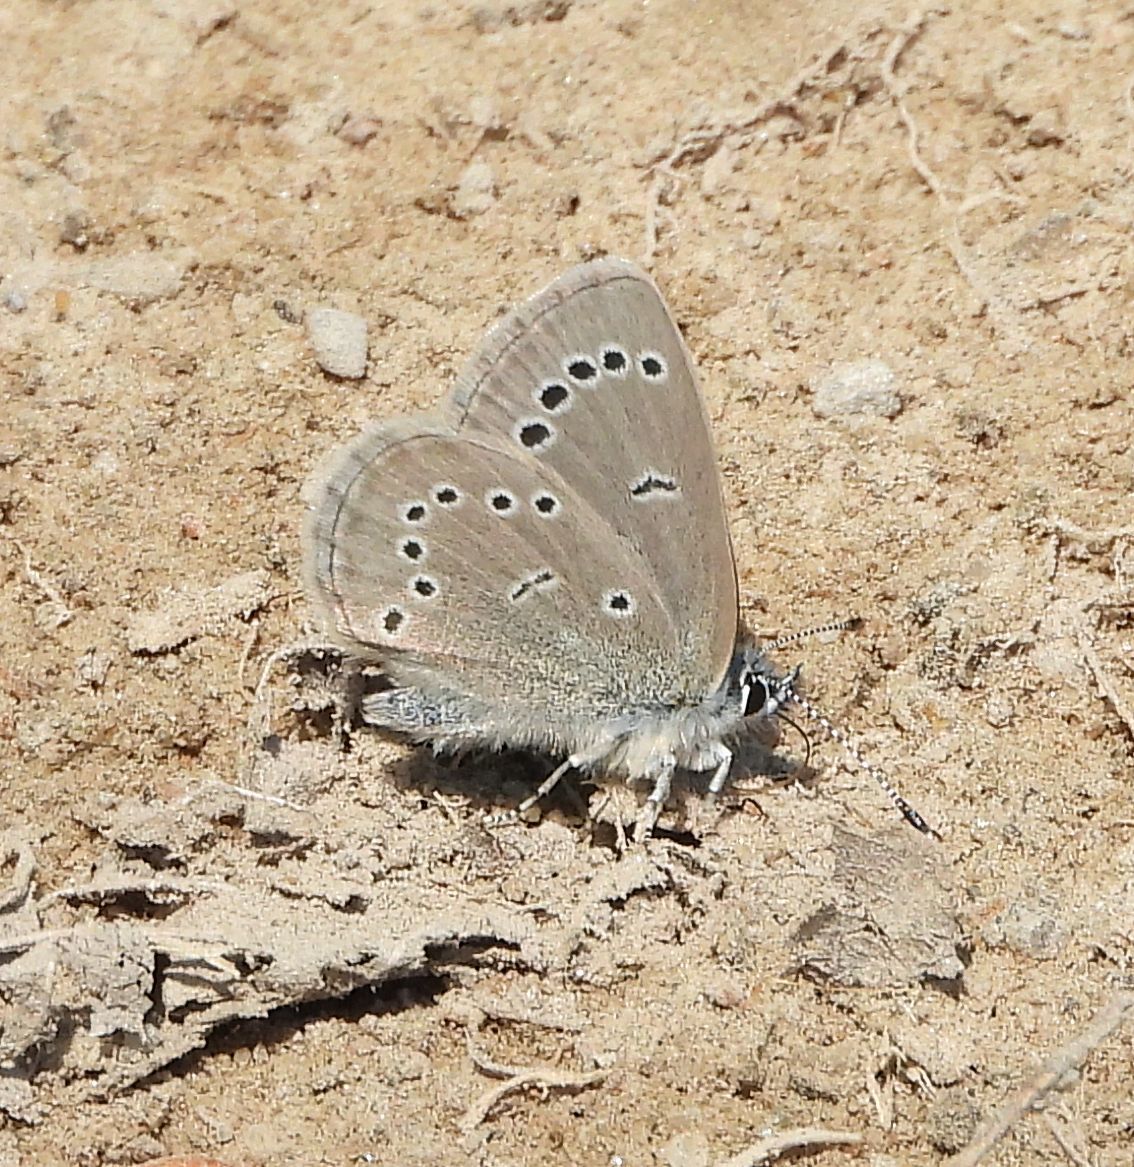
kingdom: Animalia
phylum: Arthropoda
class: Insecta
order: Lepidoptera
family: Lycaenidae
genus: Glaucopsyche
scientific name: Glaucopsyche lygdamus
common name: Silvery blue
